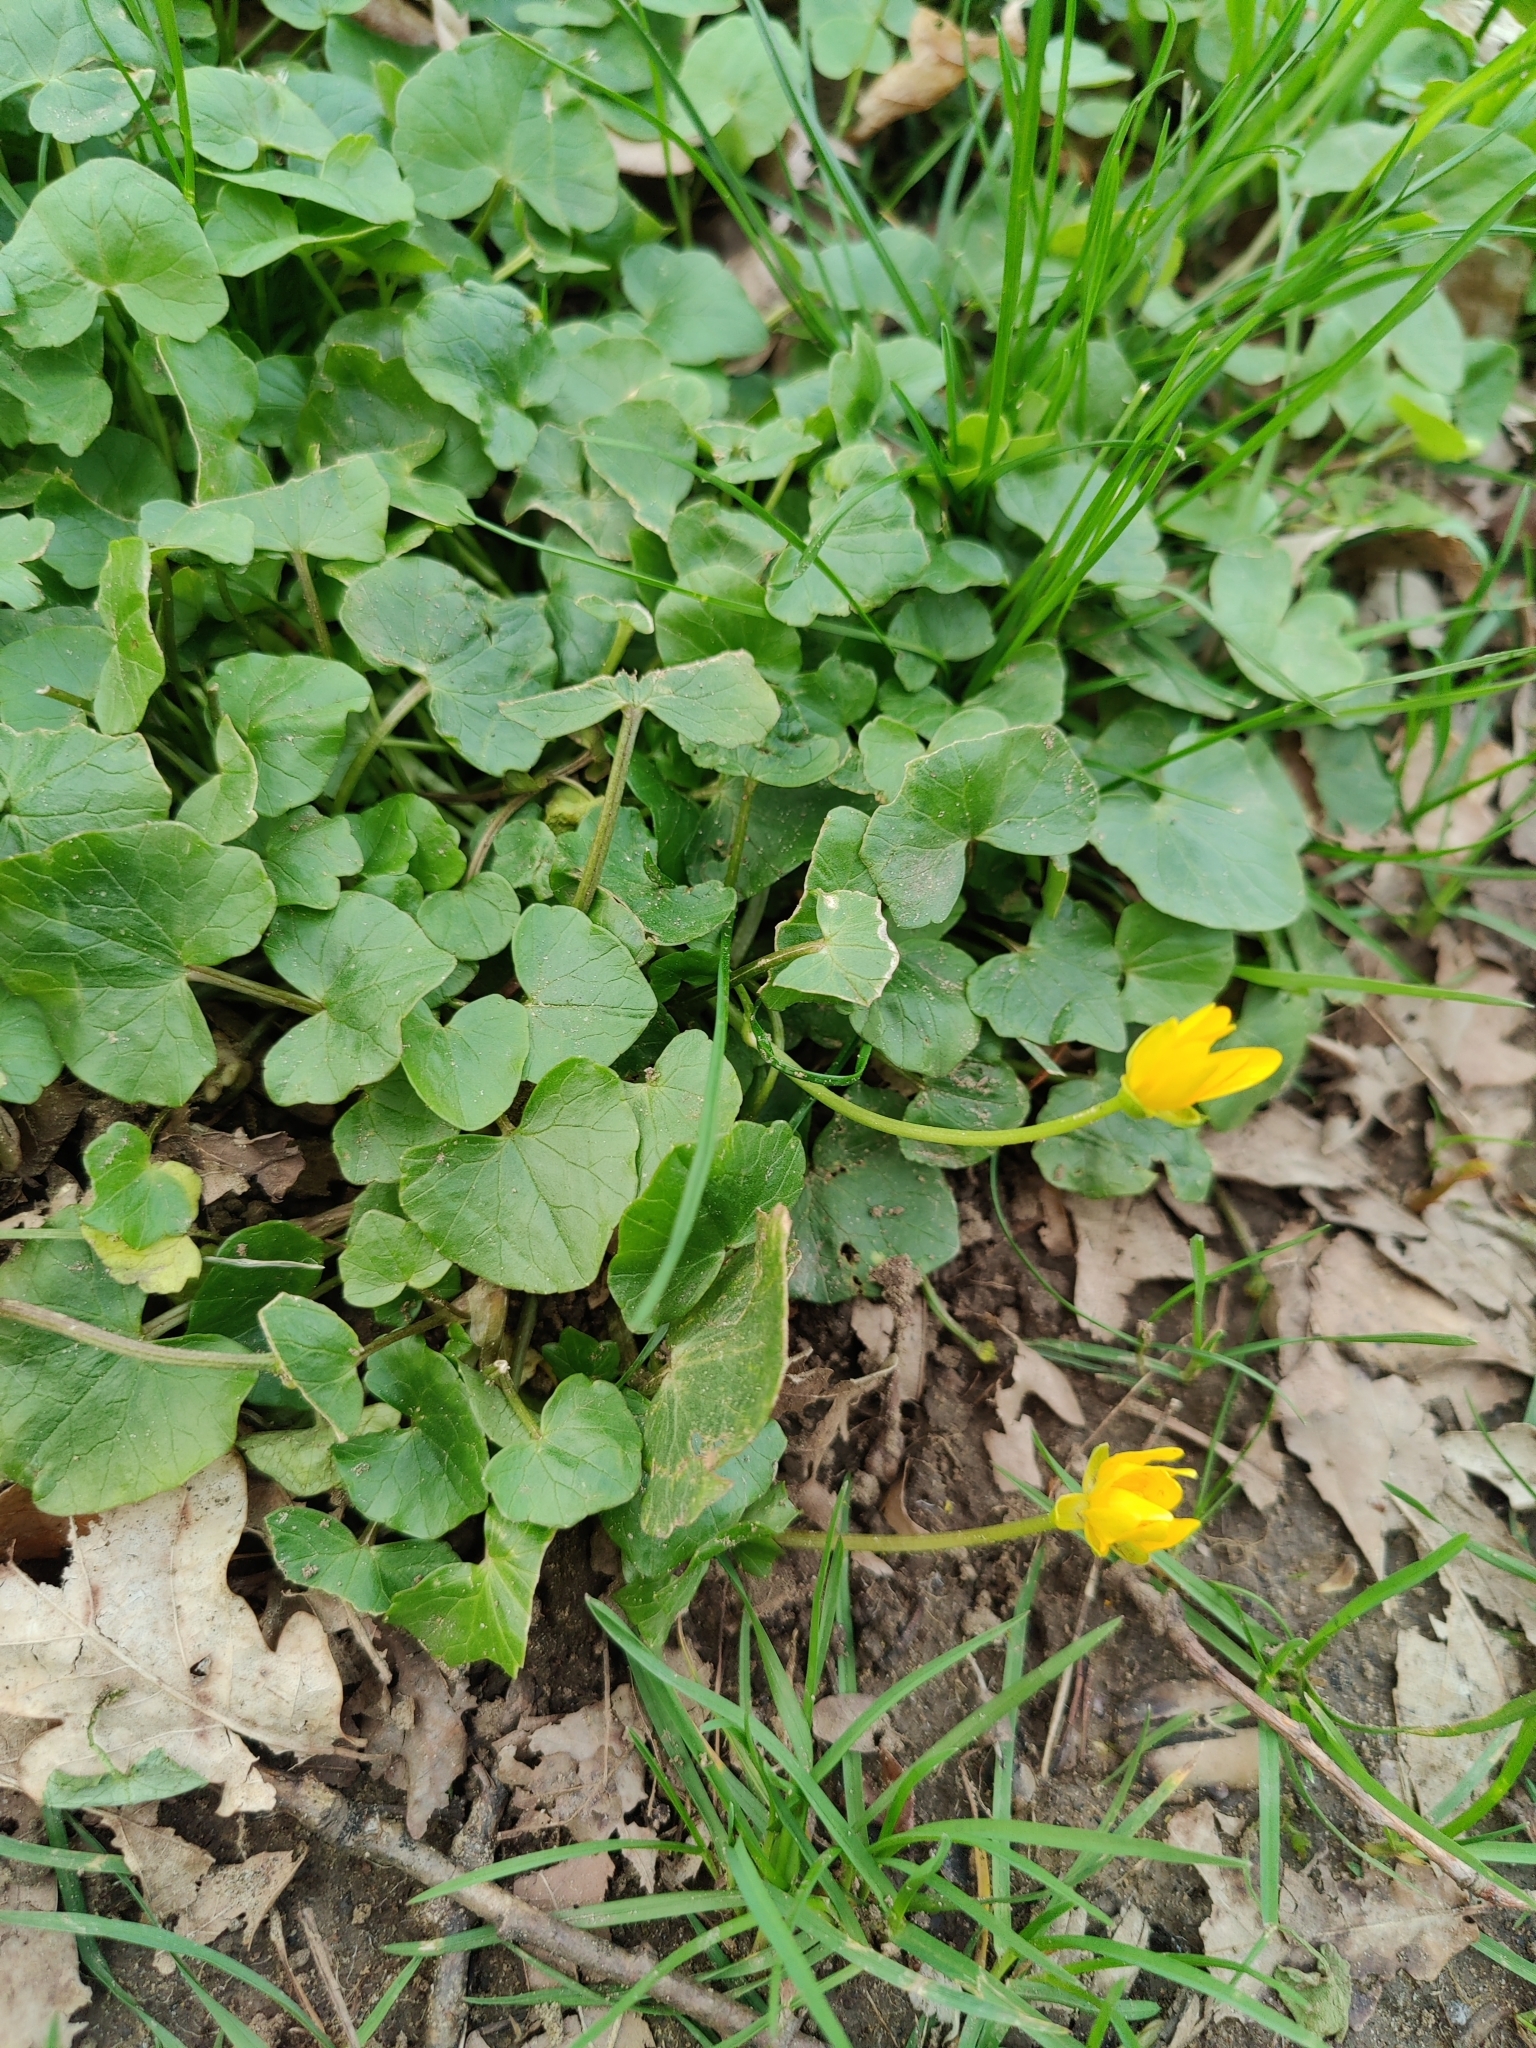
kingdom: Plantae
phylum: Tracheophyta
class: Magnoliopsida
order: Ranunculales
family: Ranunculaceae
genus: Ficaria
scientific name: Ficaria verna
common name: Lesser celandine
